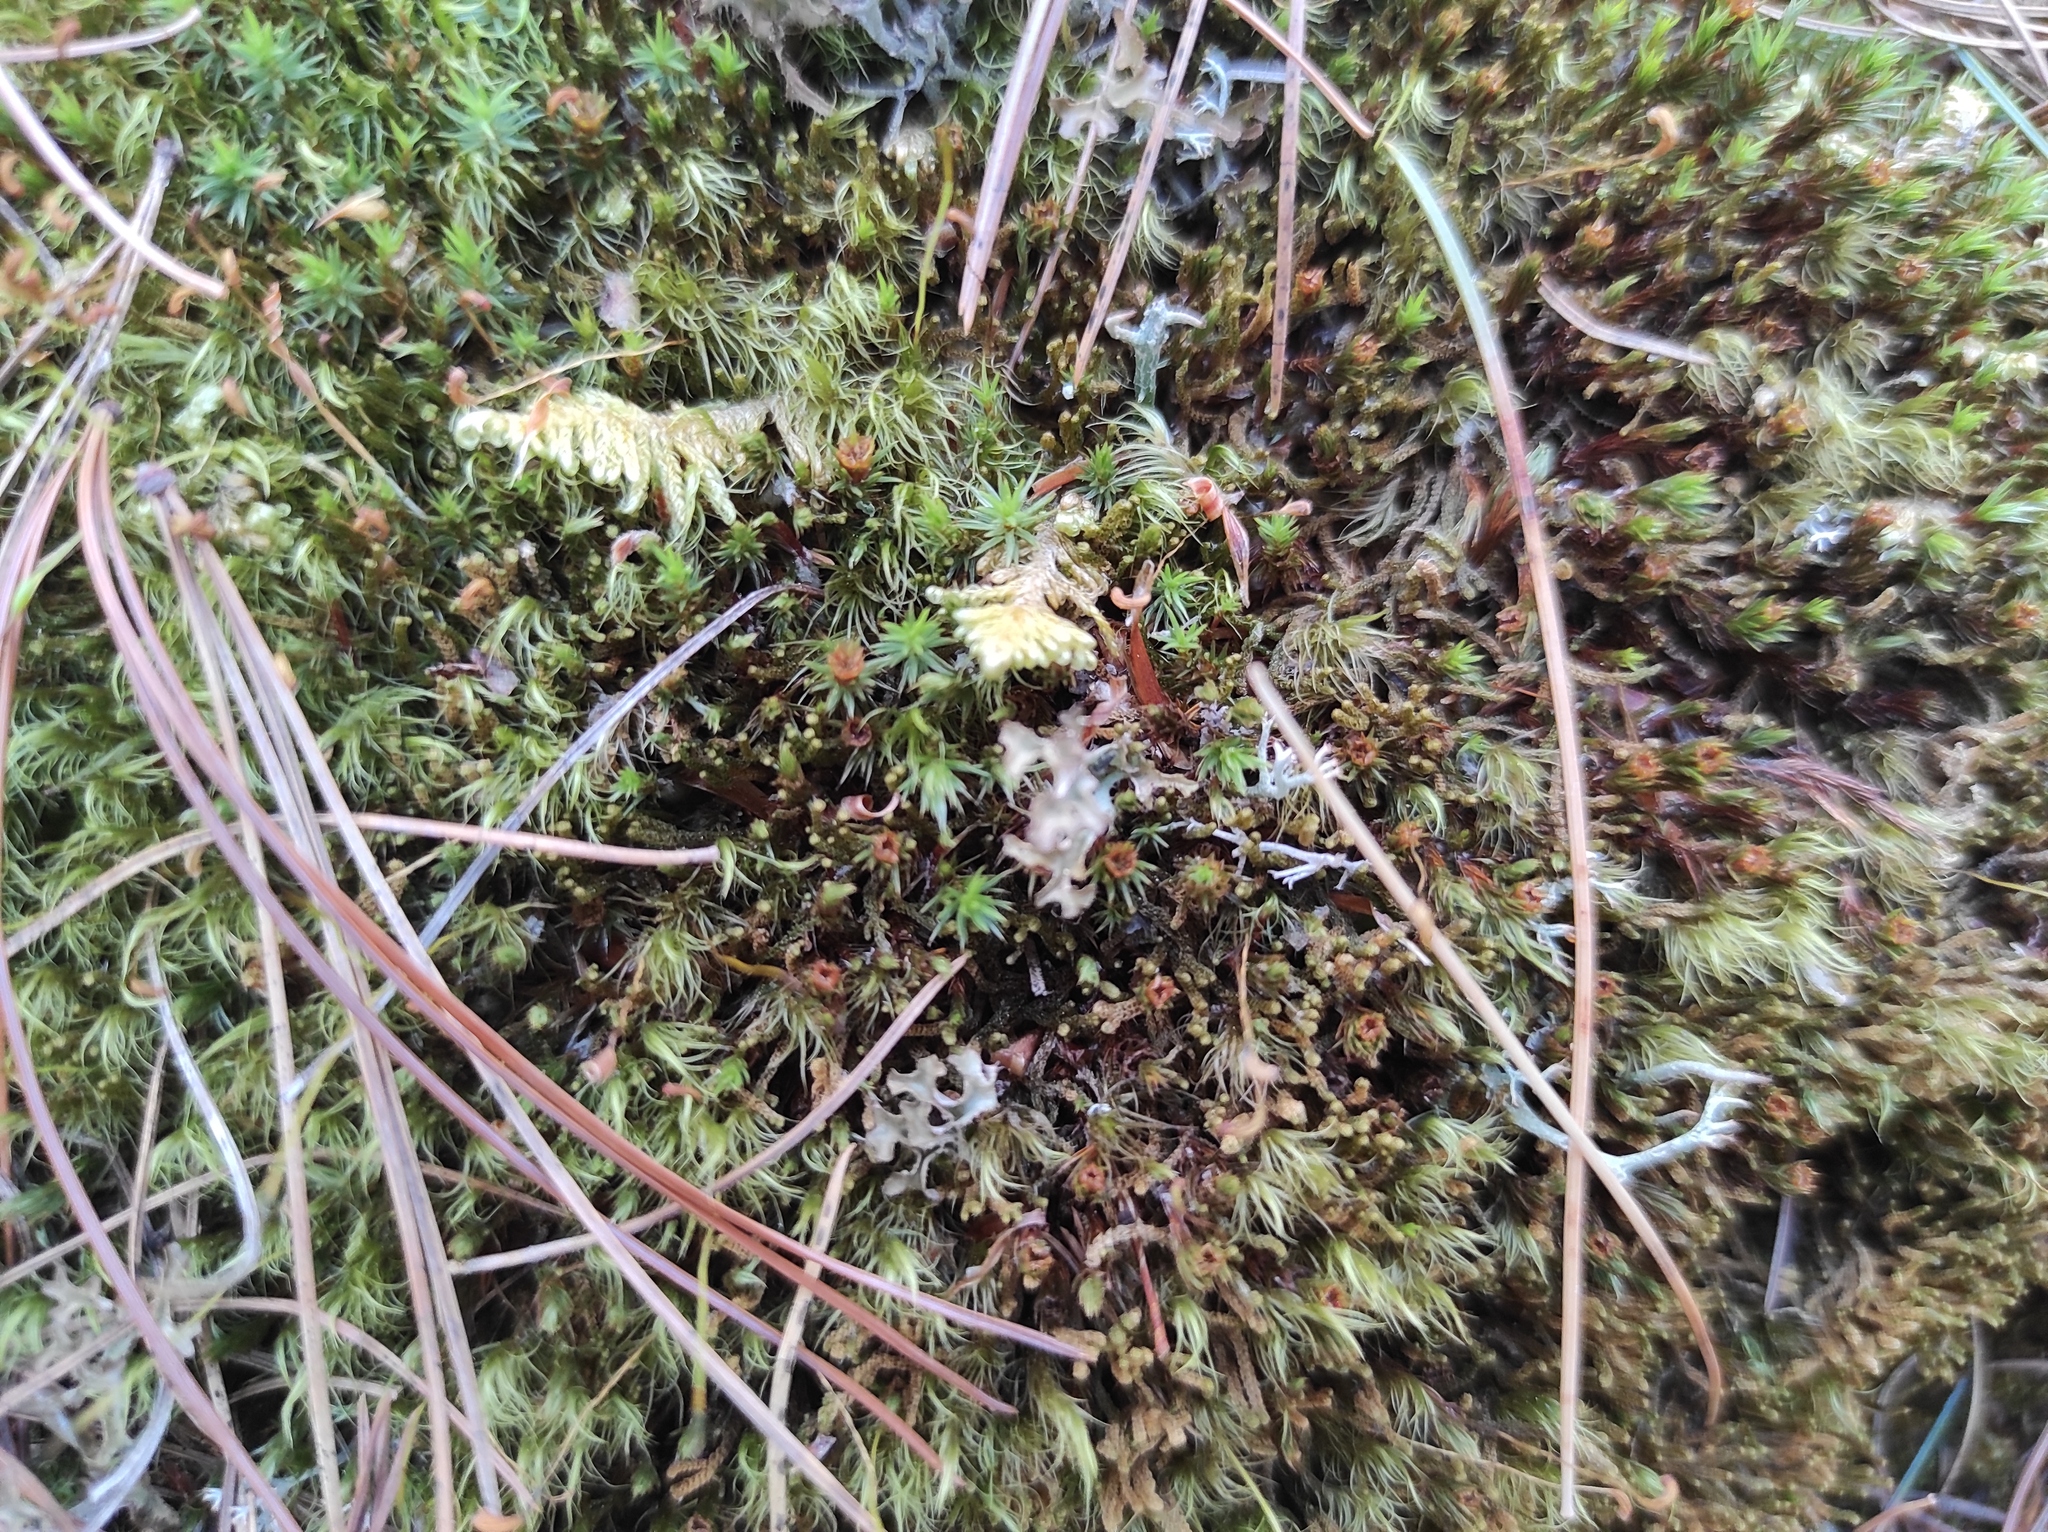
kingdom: Plantae
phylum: Bryophyta
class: Bryopsida
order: Hypnales
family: Pylaisiaceae
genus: Ptilium
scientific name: Ptilium crista-castrensis
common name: Knight's plume moss
